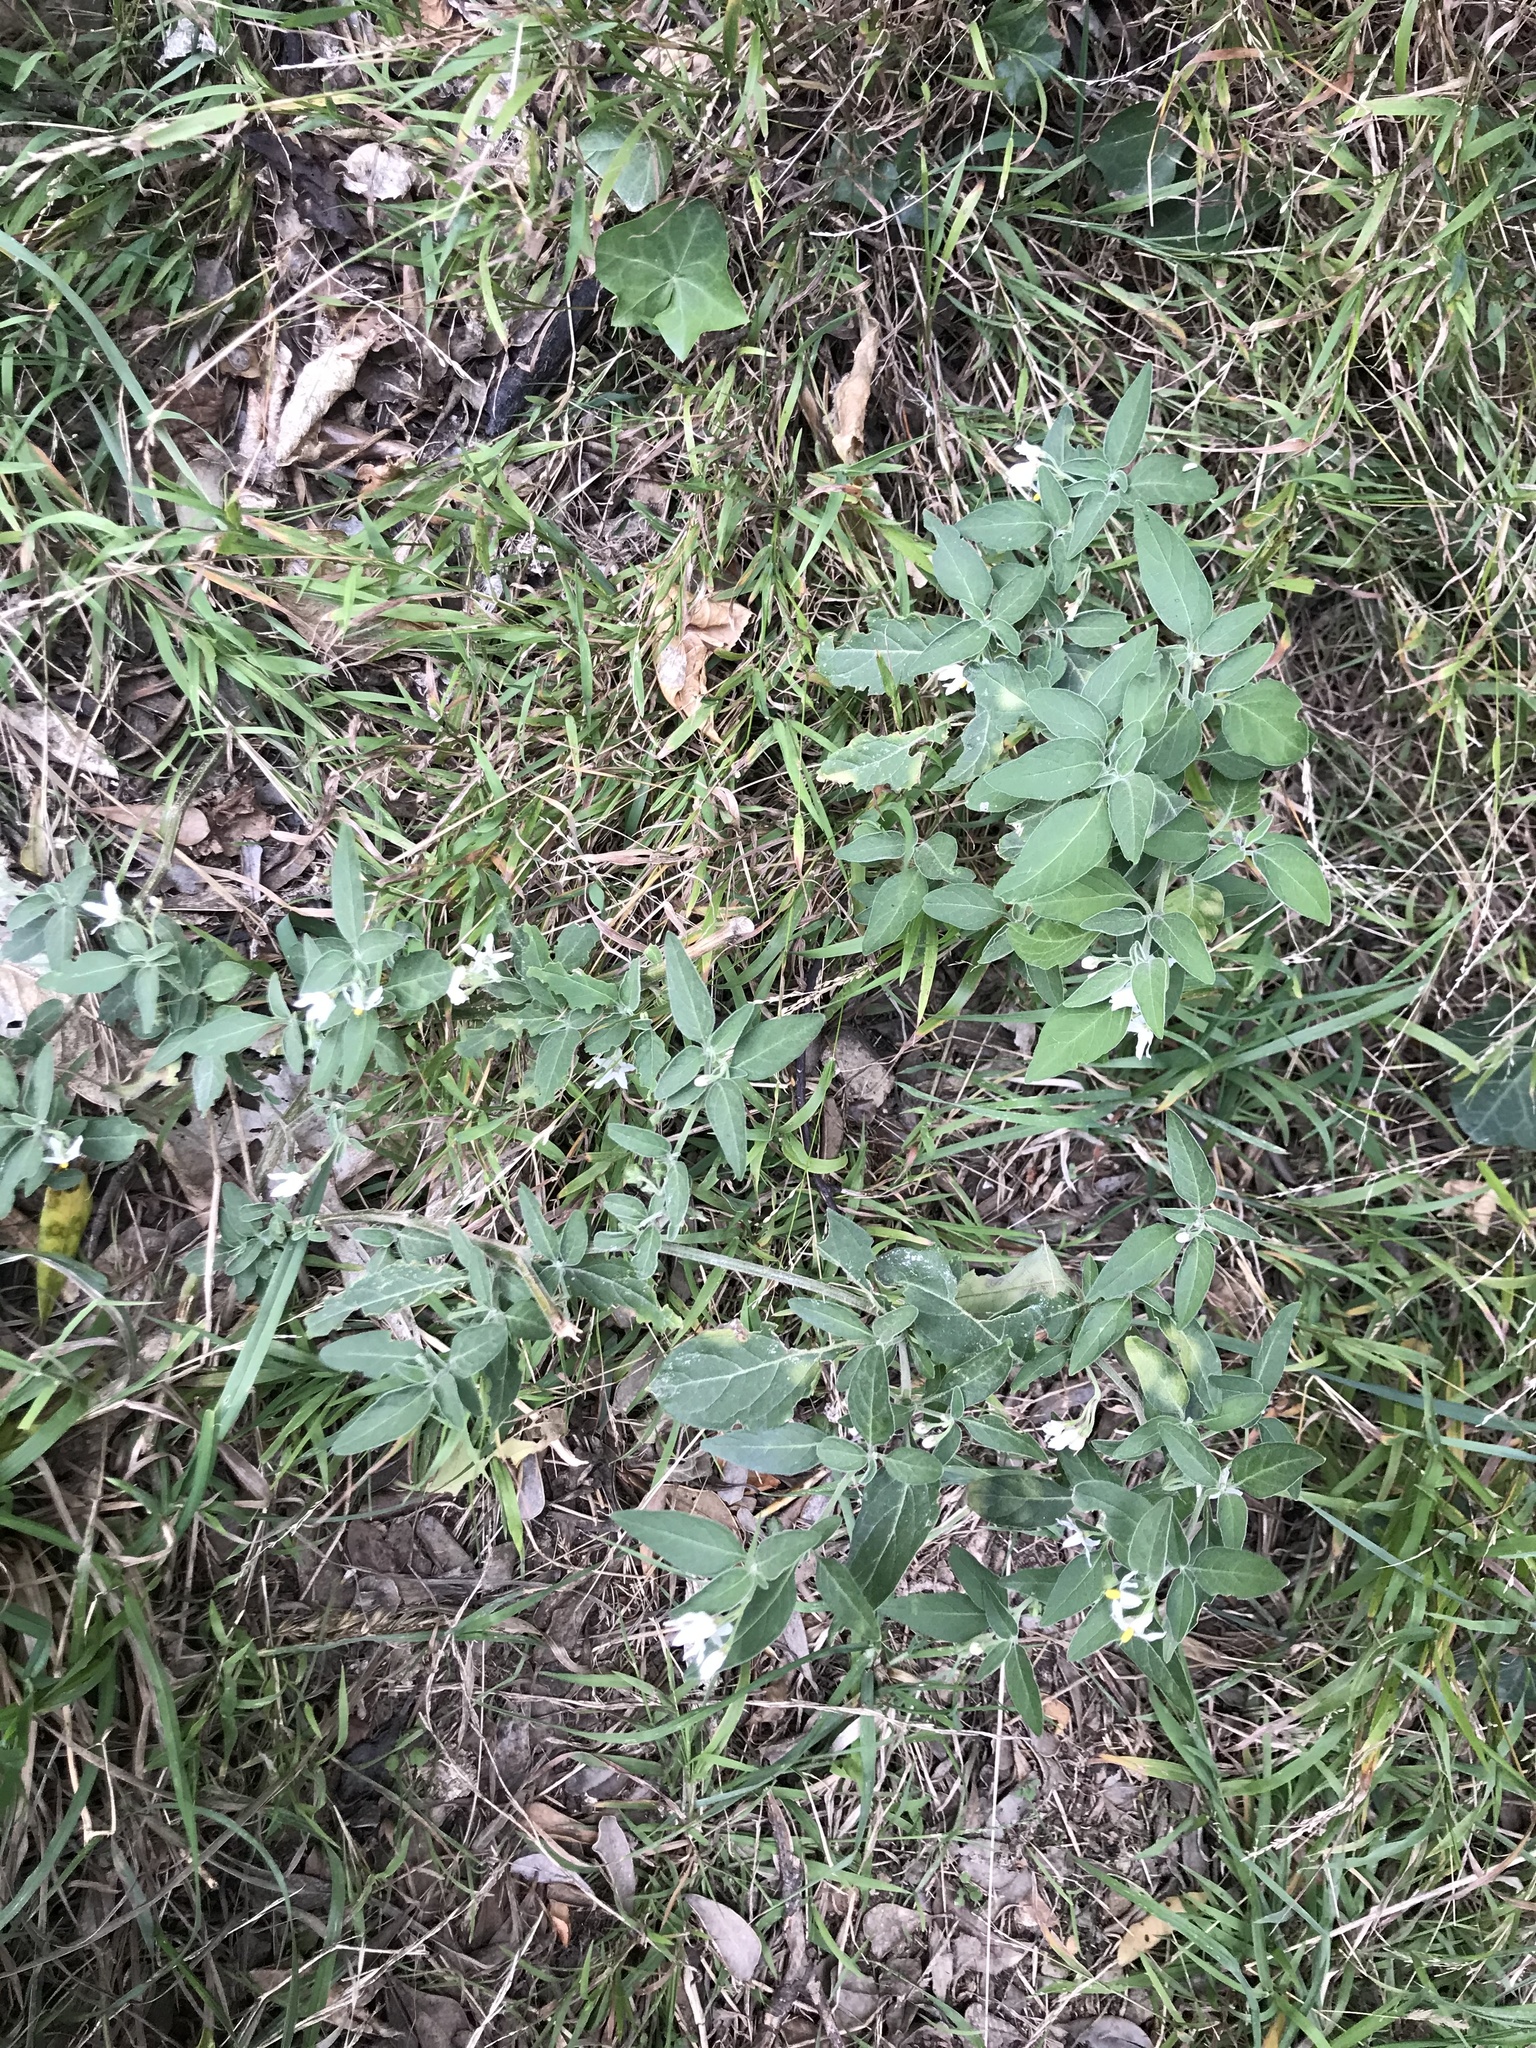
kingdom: Plantae
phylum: Tracheophyta
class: Magnoliopsida
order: Solanales
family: Solanaceae
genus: Solanum
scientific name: Solanum chenopodioides
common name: Tall nightshade
